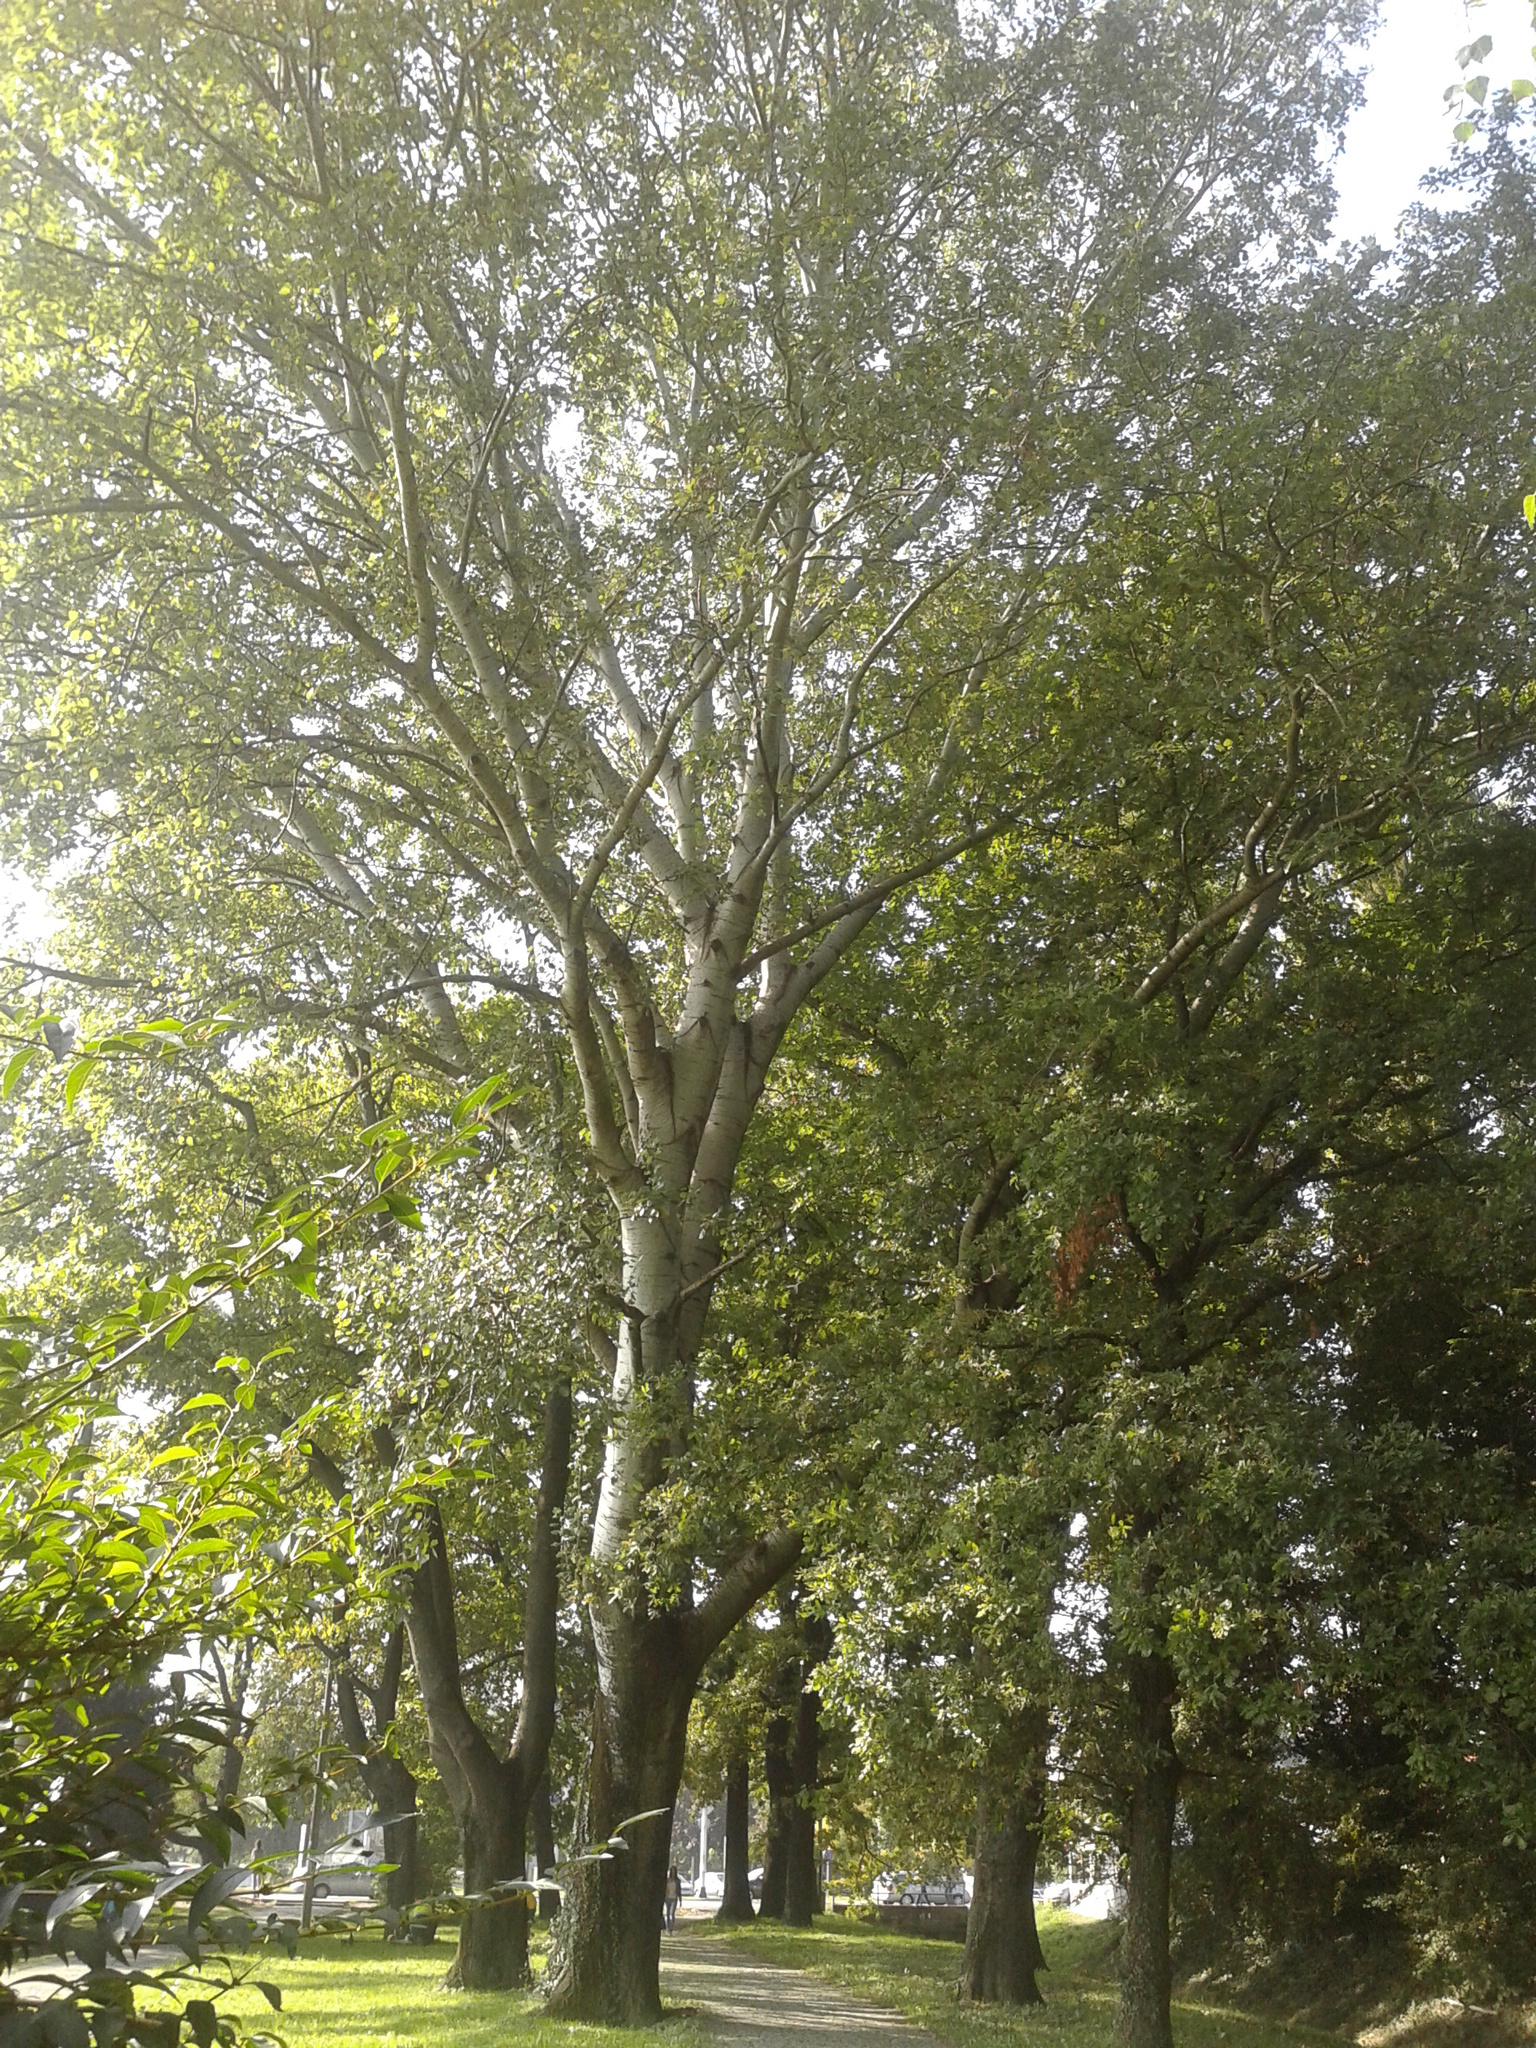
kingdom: Plantae
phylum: Tracheophyta
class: Magnoliopsida
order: Malpighiales
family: Salicaceae
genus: Populus
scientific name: Populus alba
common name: White poplar
